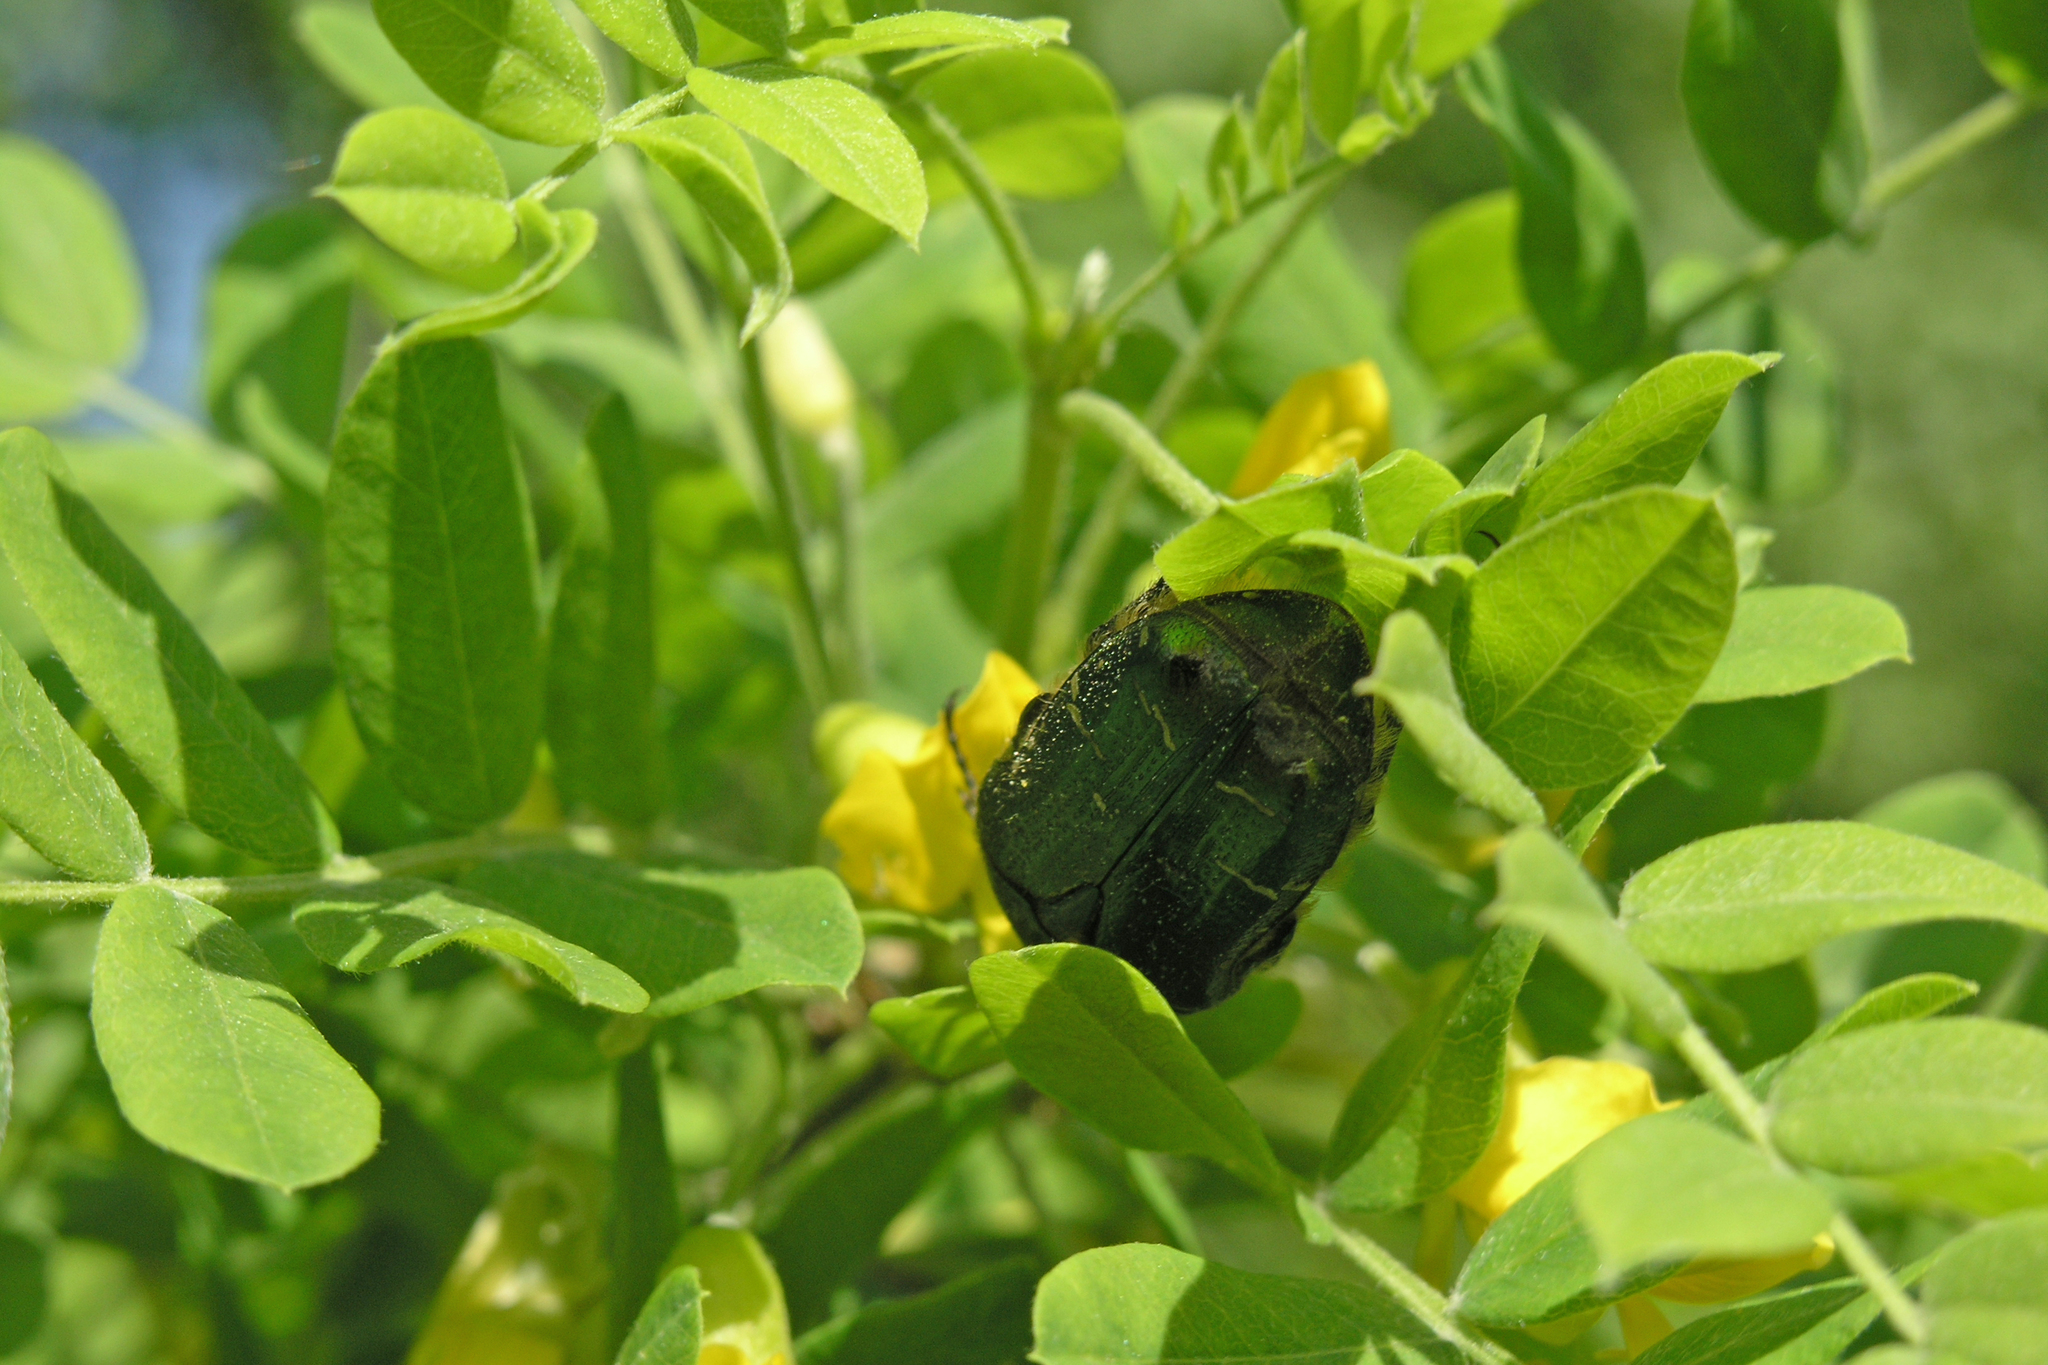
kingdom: Animalia
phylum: Arthropoda
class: Insecta
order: Coleoptera
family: Scarabaeidae
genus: Cetonia
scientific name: Cetonia aurata
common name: Rose chafer
